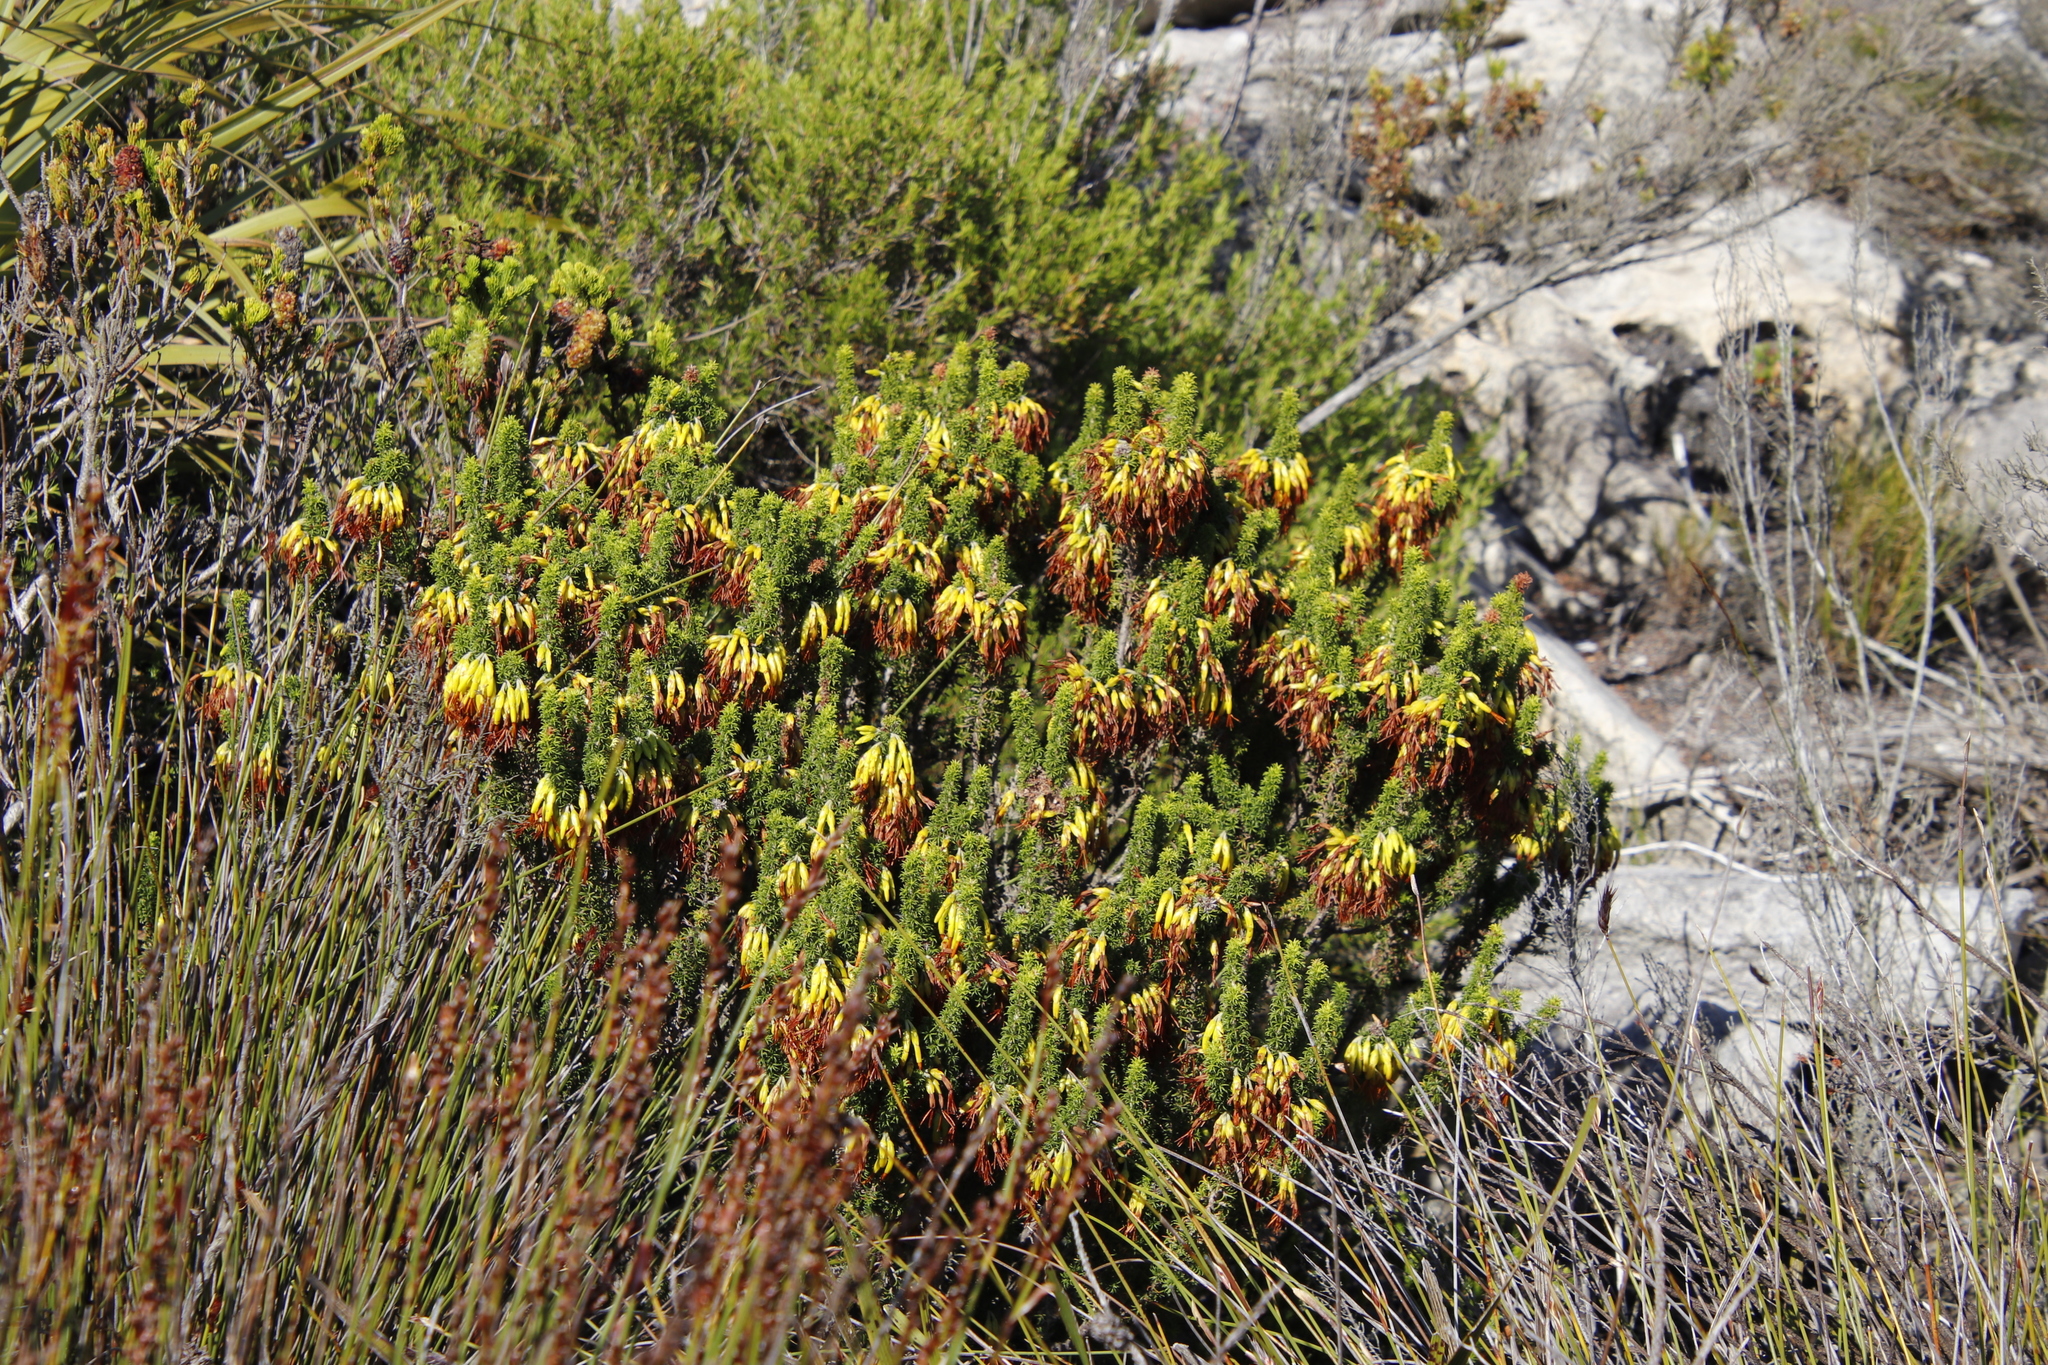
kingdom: Plantae
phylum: Tracheophyta
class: Magnoliopsida
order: Ericales
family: Ericaceae
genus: Erica
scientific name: Erica coccinea
